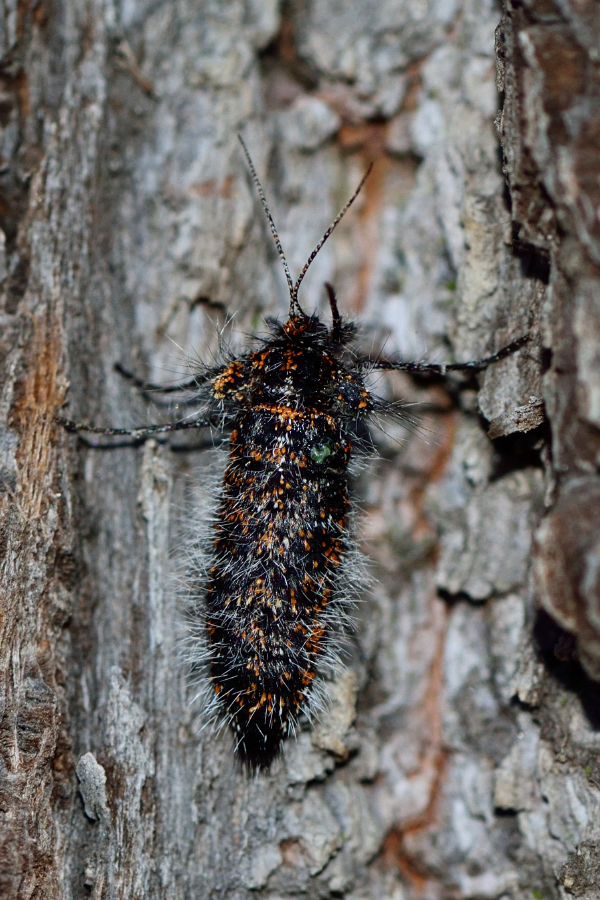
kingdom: Animalia
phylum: Arthropoda
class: Insecta
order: Lepidoptera
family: Geometridae
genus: Lycia
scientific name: Lycia pomonaria
